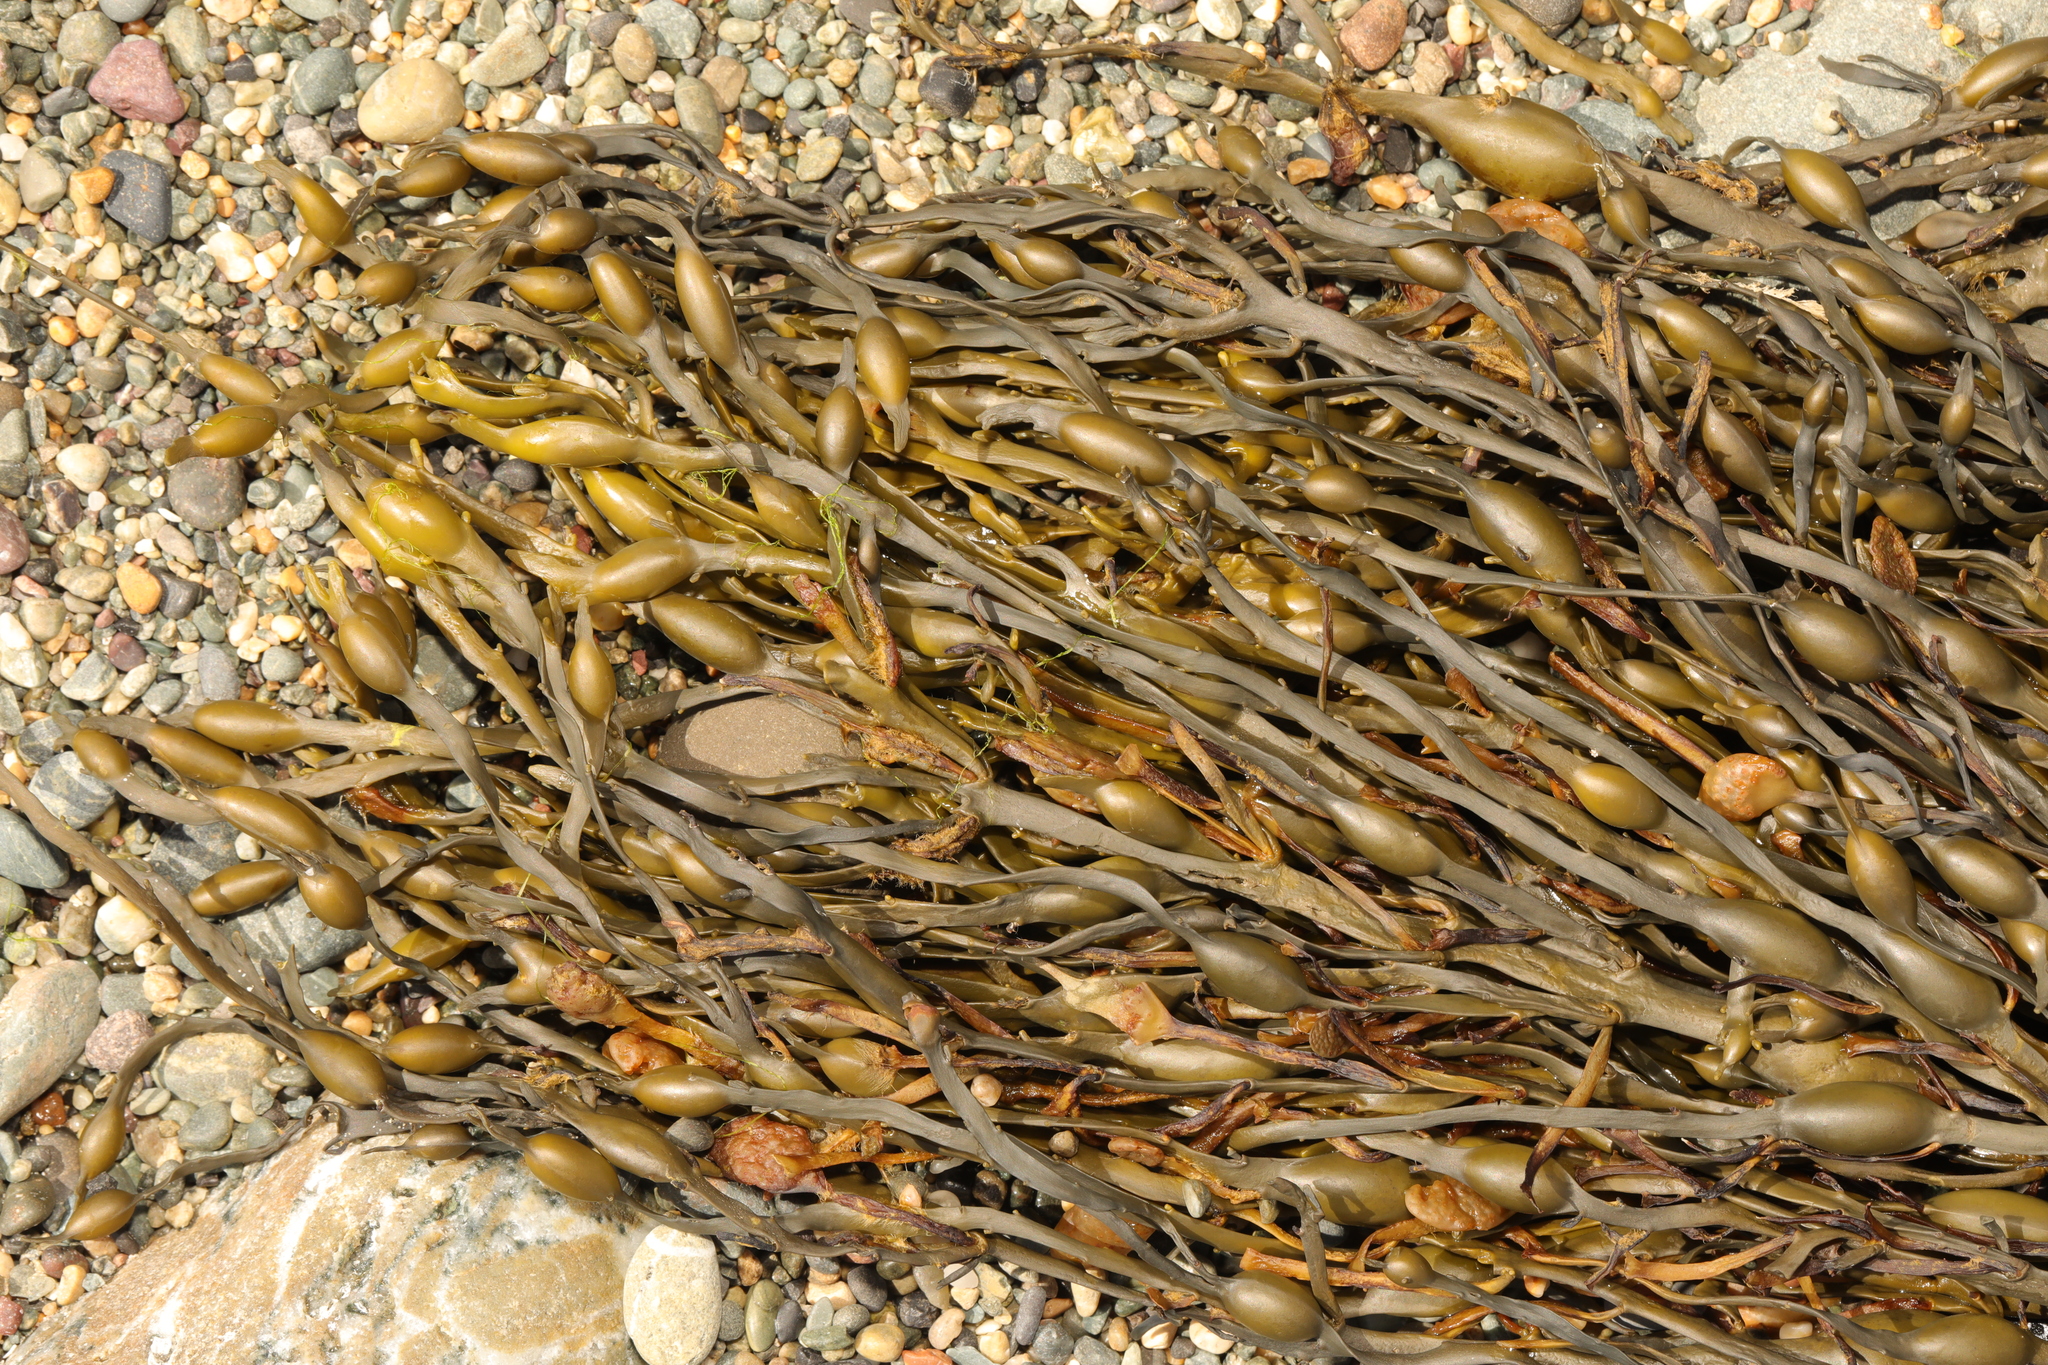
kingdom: Chromista
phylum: Ochrophyta
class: Phaeophyceae
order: Fucales
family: Fucaceae
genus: Ascophyllum
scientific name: Ascophyllum nodosum
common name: Knotted wrack
